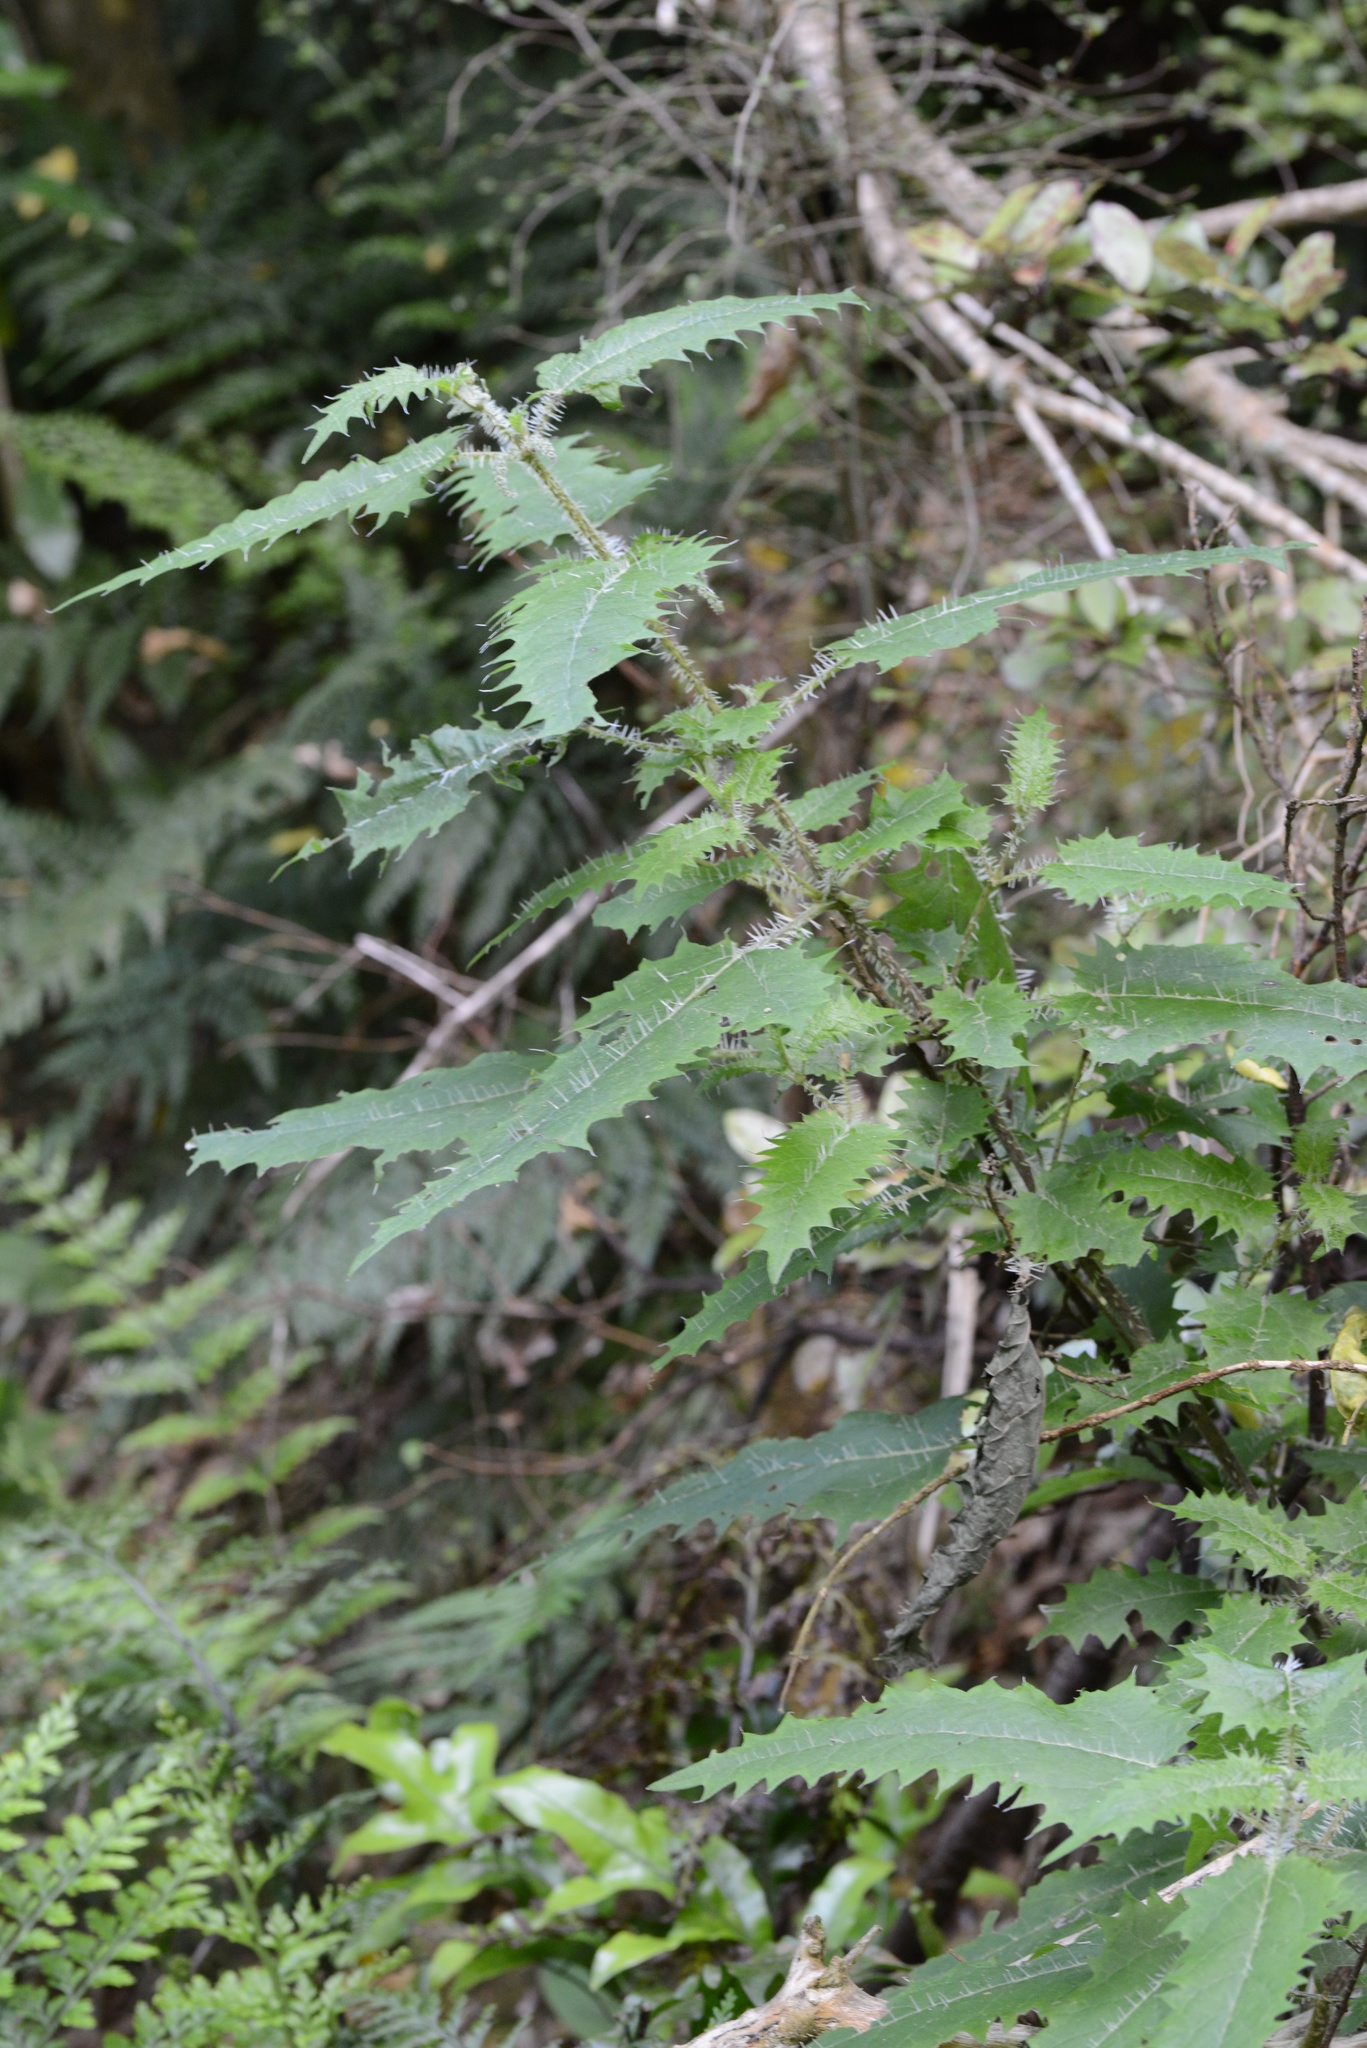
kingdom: Plantae
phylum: Tracheophyta
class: Magnoliopsida
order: Rosales
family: Urticaceae
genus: Urtica
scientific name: Urtica ferox
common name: Tree nettle
